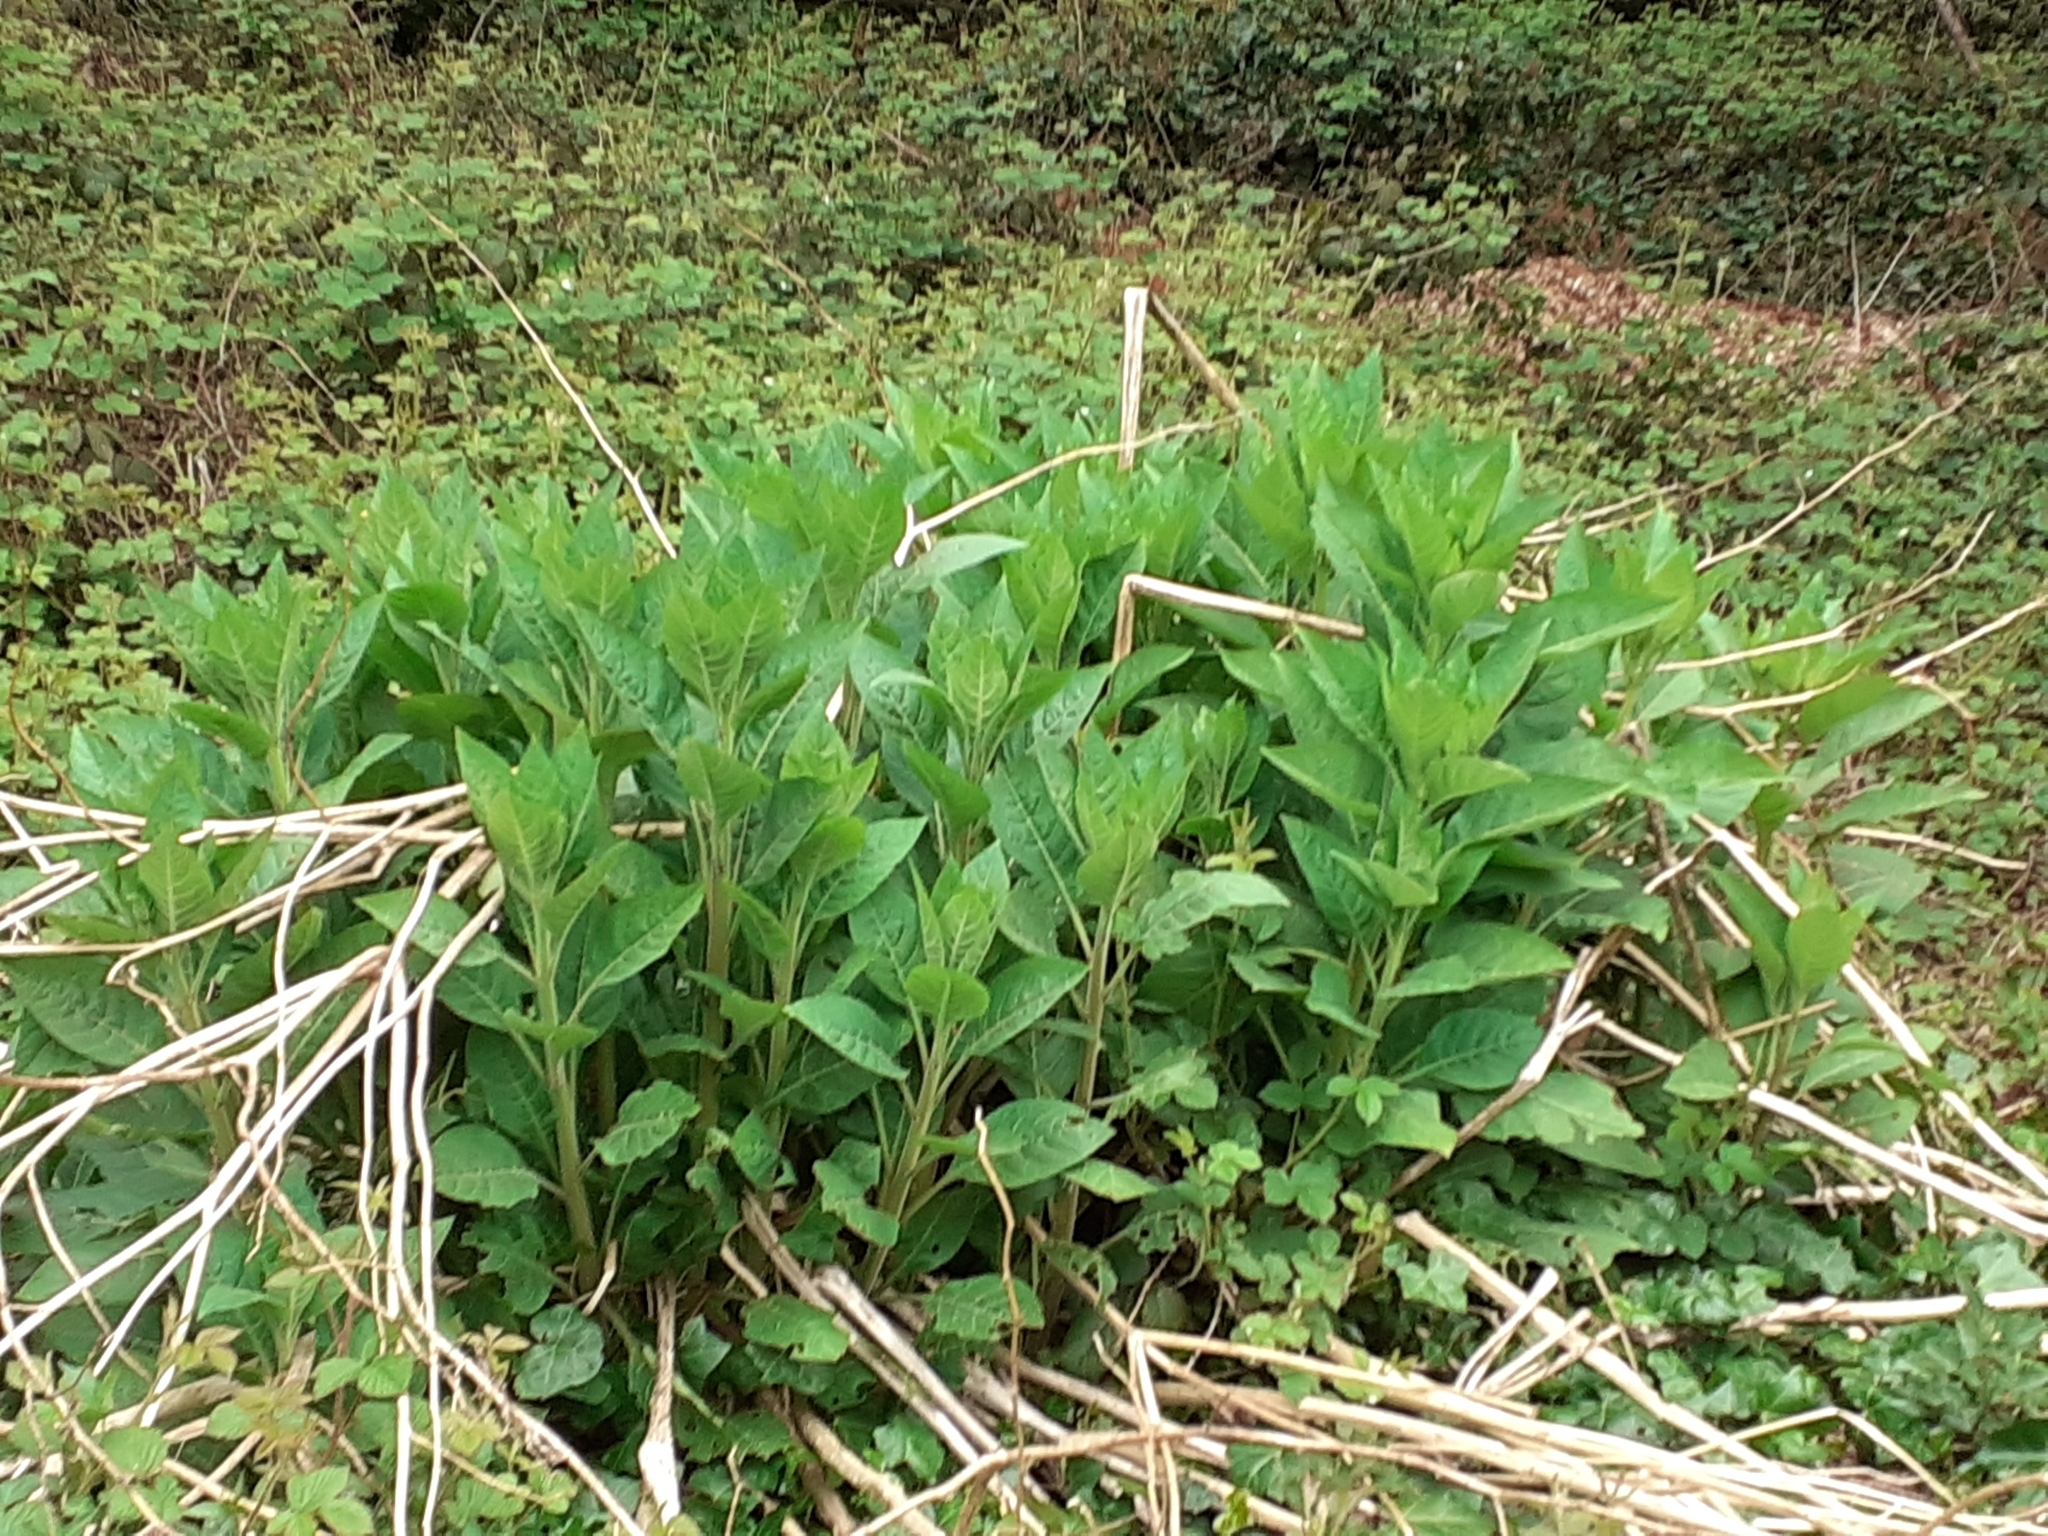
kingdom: Plantae
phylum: Tracheophyta
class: Magnoliopsida
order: Solanales
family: Solanaceae
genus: Atropa
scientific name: Atropa belladonna
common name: Deadly nightshade
